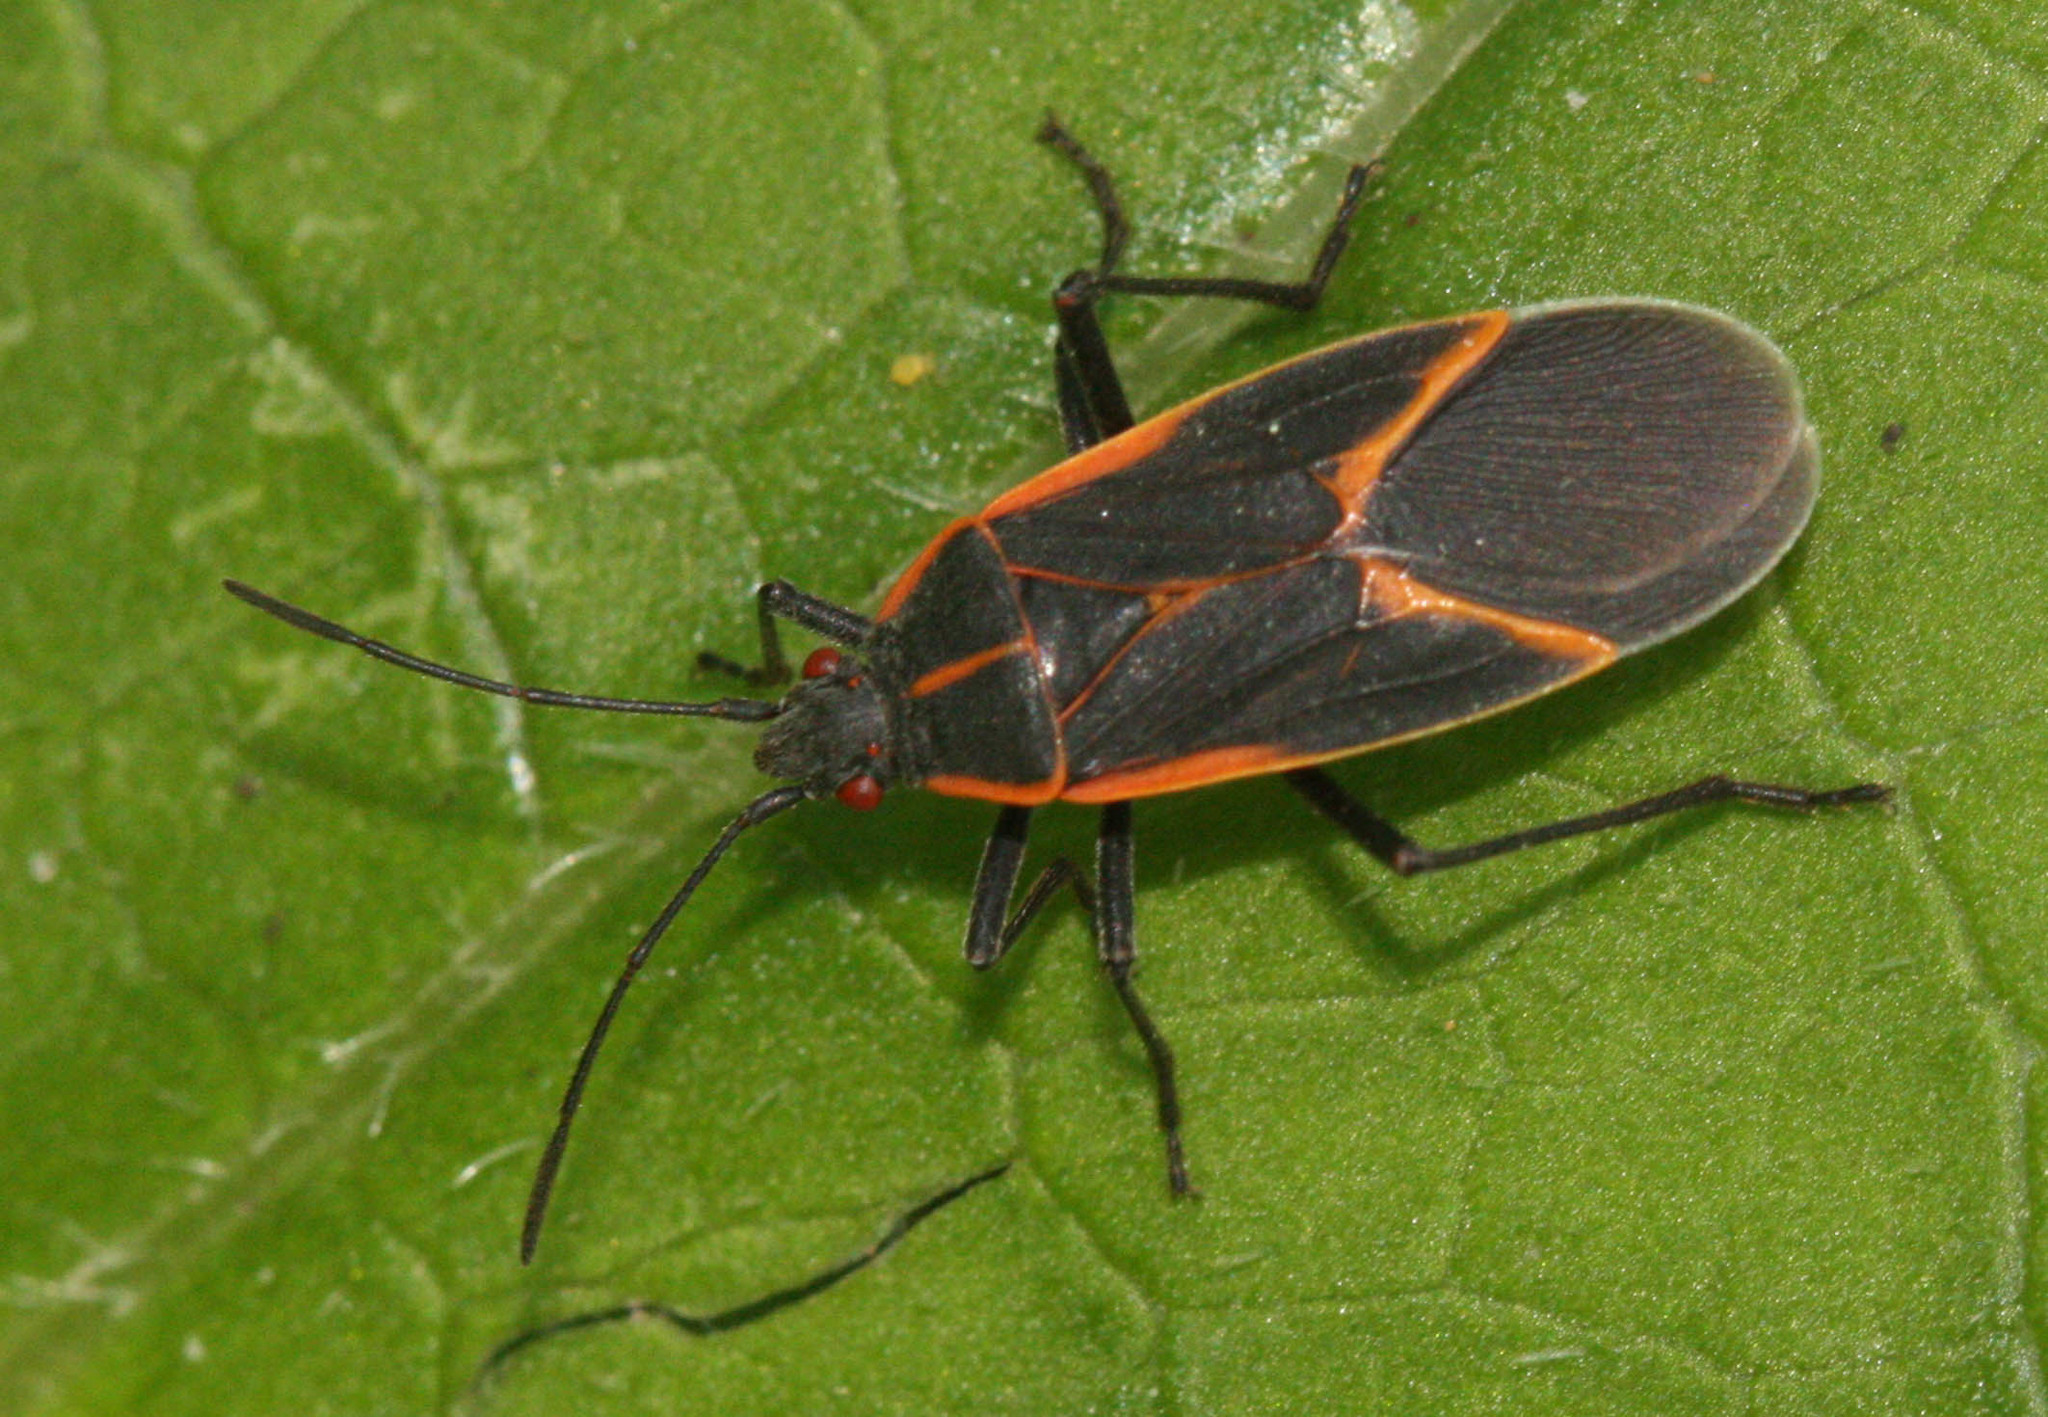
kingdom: Animalia
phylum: Arthropoda
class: Insecta
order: Hemiptera
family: Rhopalidae
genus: Boisea
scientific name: Boisea trivittata
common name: Boxelder bug
